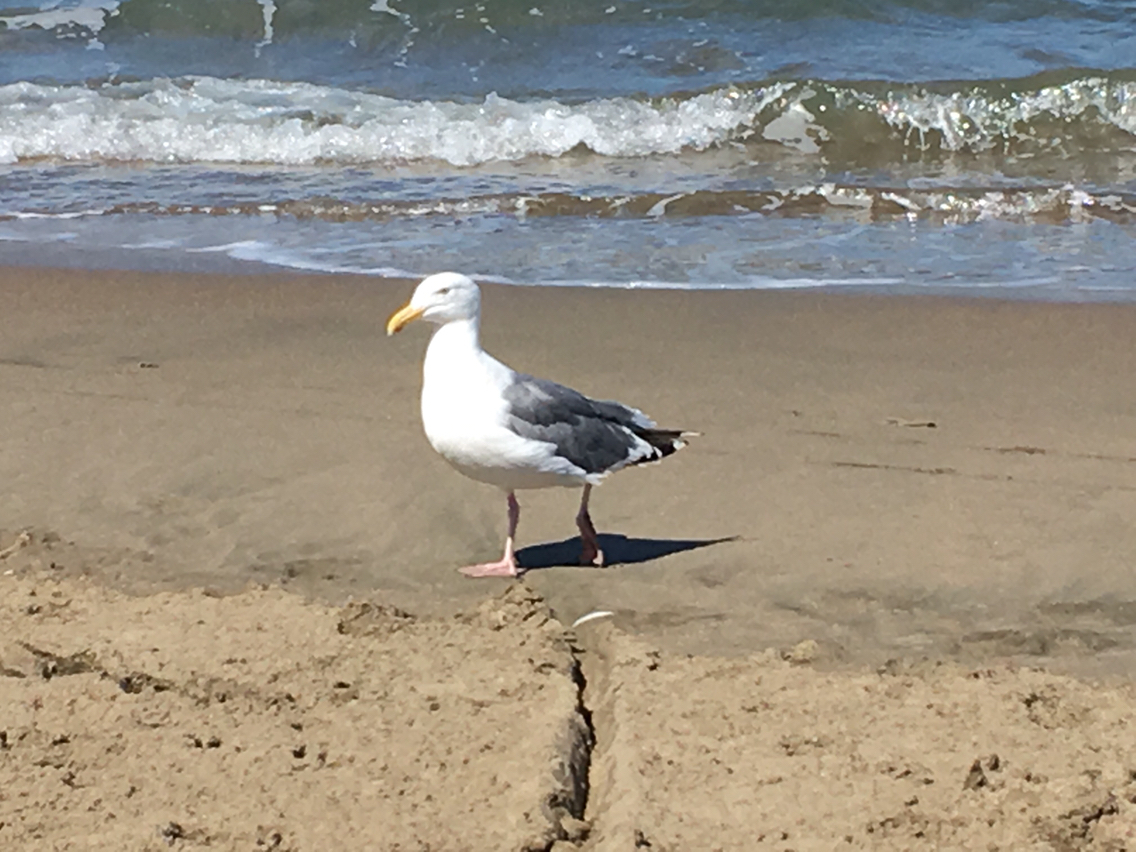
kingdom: Animalia
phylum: Chordata
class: Aves
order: Charadriiformes
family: Laridae
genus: Larus
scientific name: Larus occidentalis
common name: Western gull
